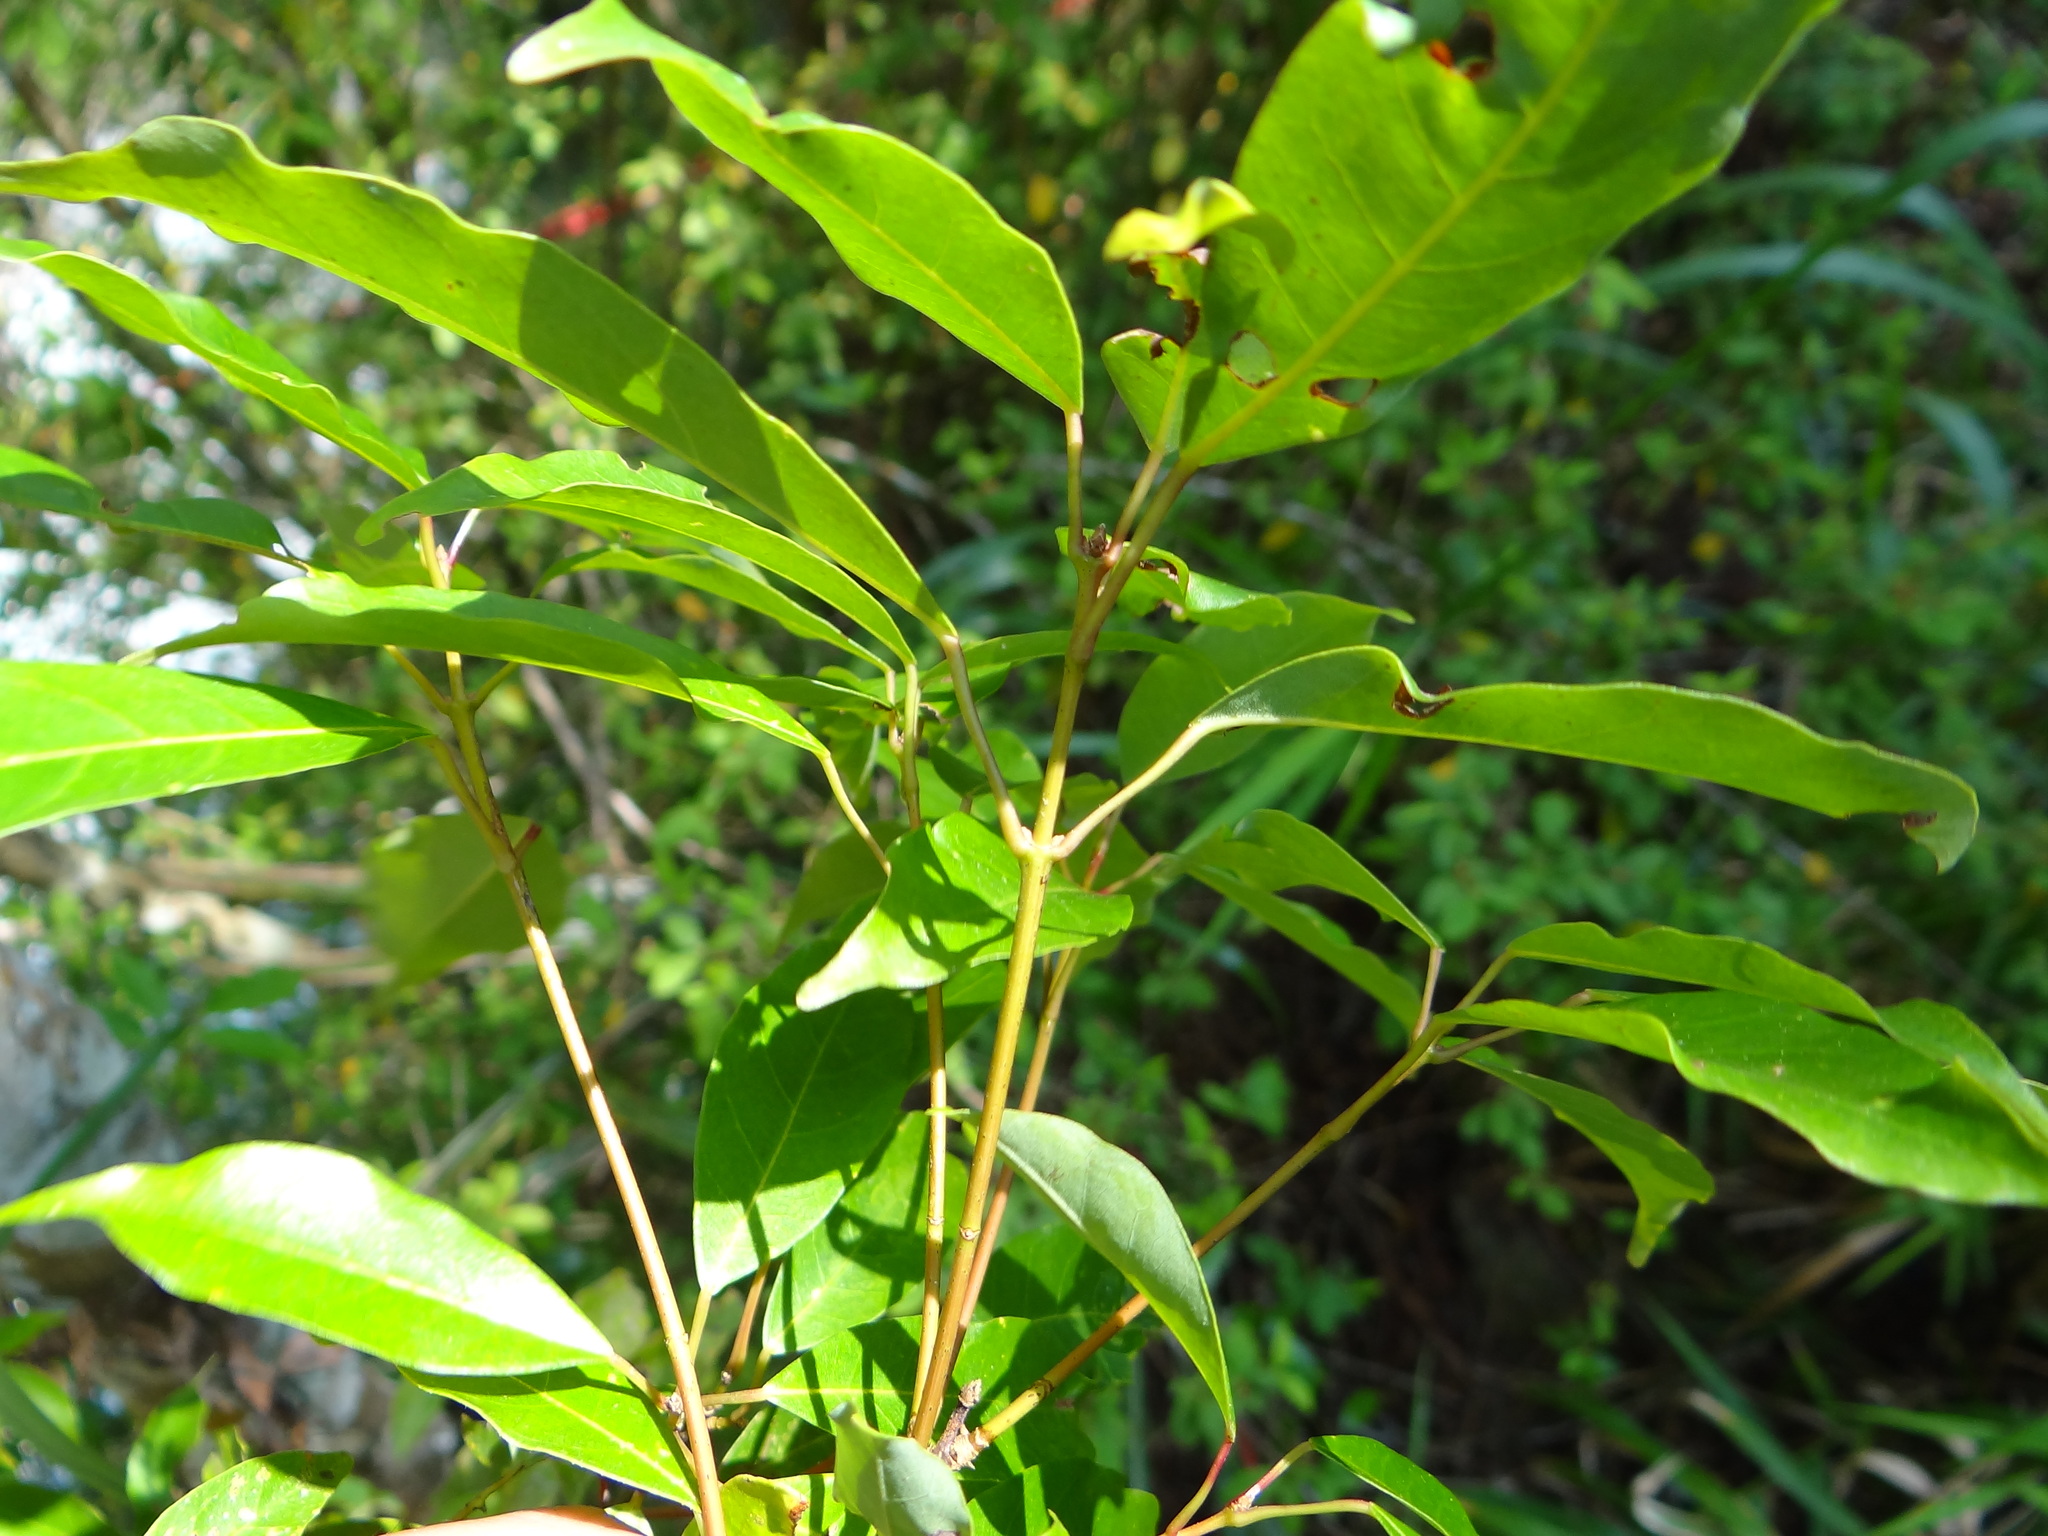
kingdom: Plantae
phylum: Tracheophyta
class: Magnoliopsida
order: Sapindales
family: Sapindaceae
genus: Acer
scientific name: Acer oblongum
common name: Himalayan maple
